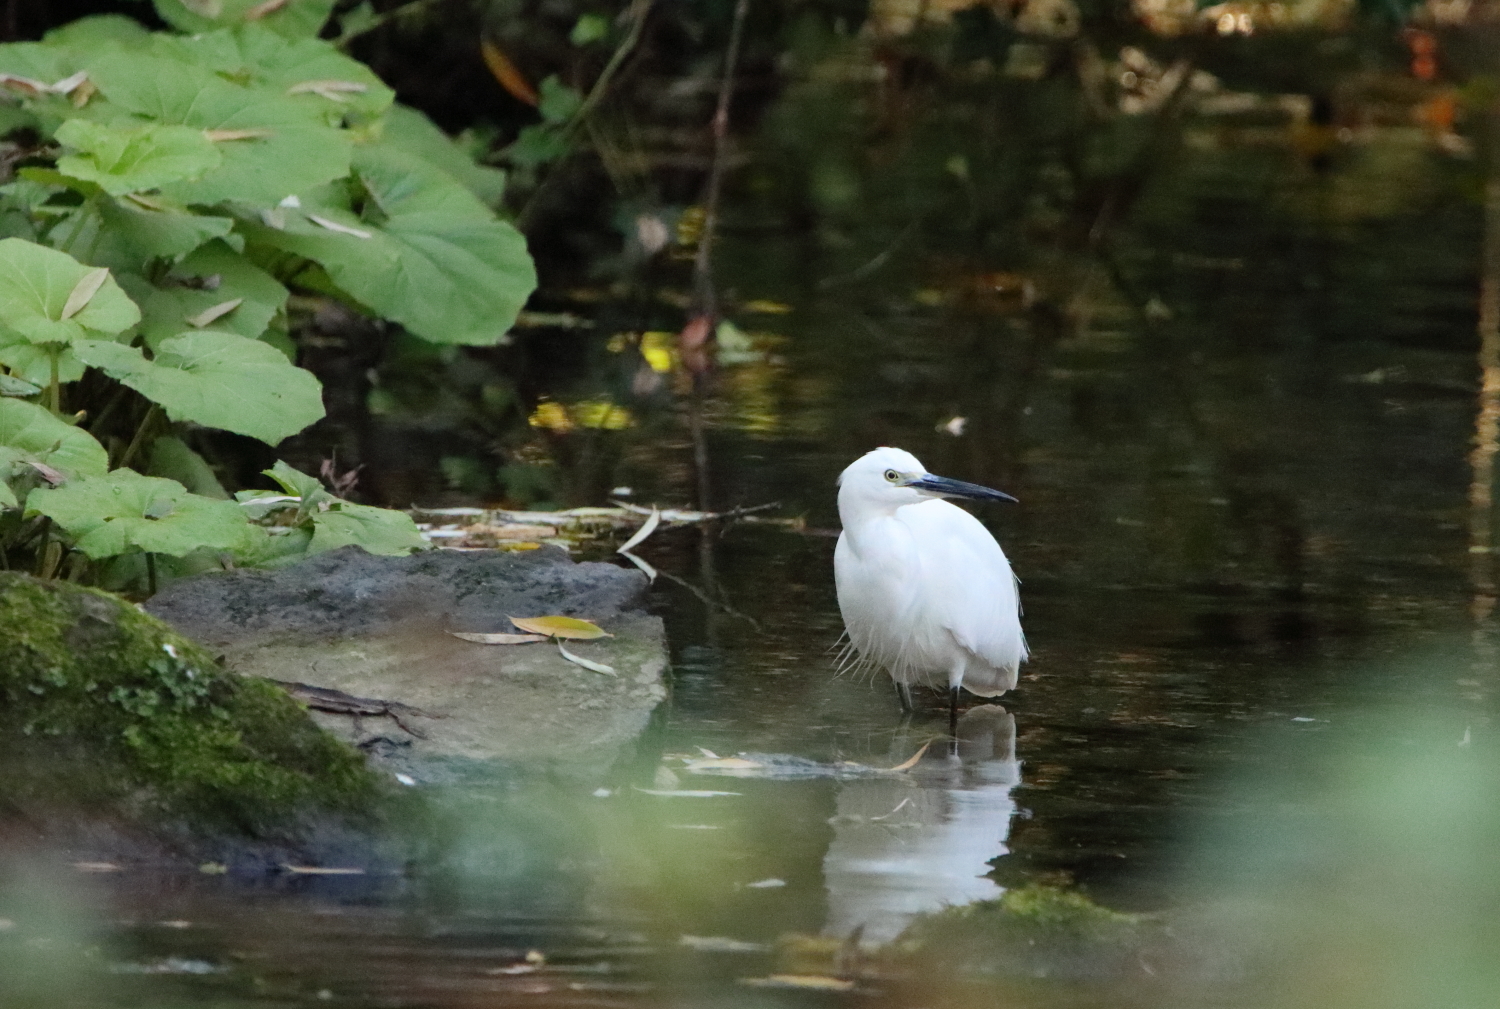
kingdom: Animalia
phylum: Chordata
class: Aves
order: Pelecaniformes
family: Ardeidae
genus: Egretta
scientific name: Egretta garzetta
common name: Little egret
